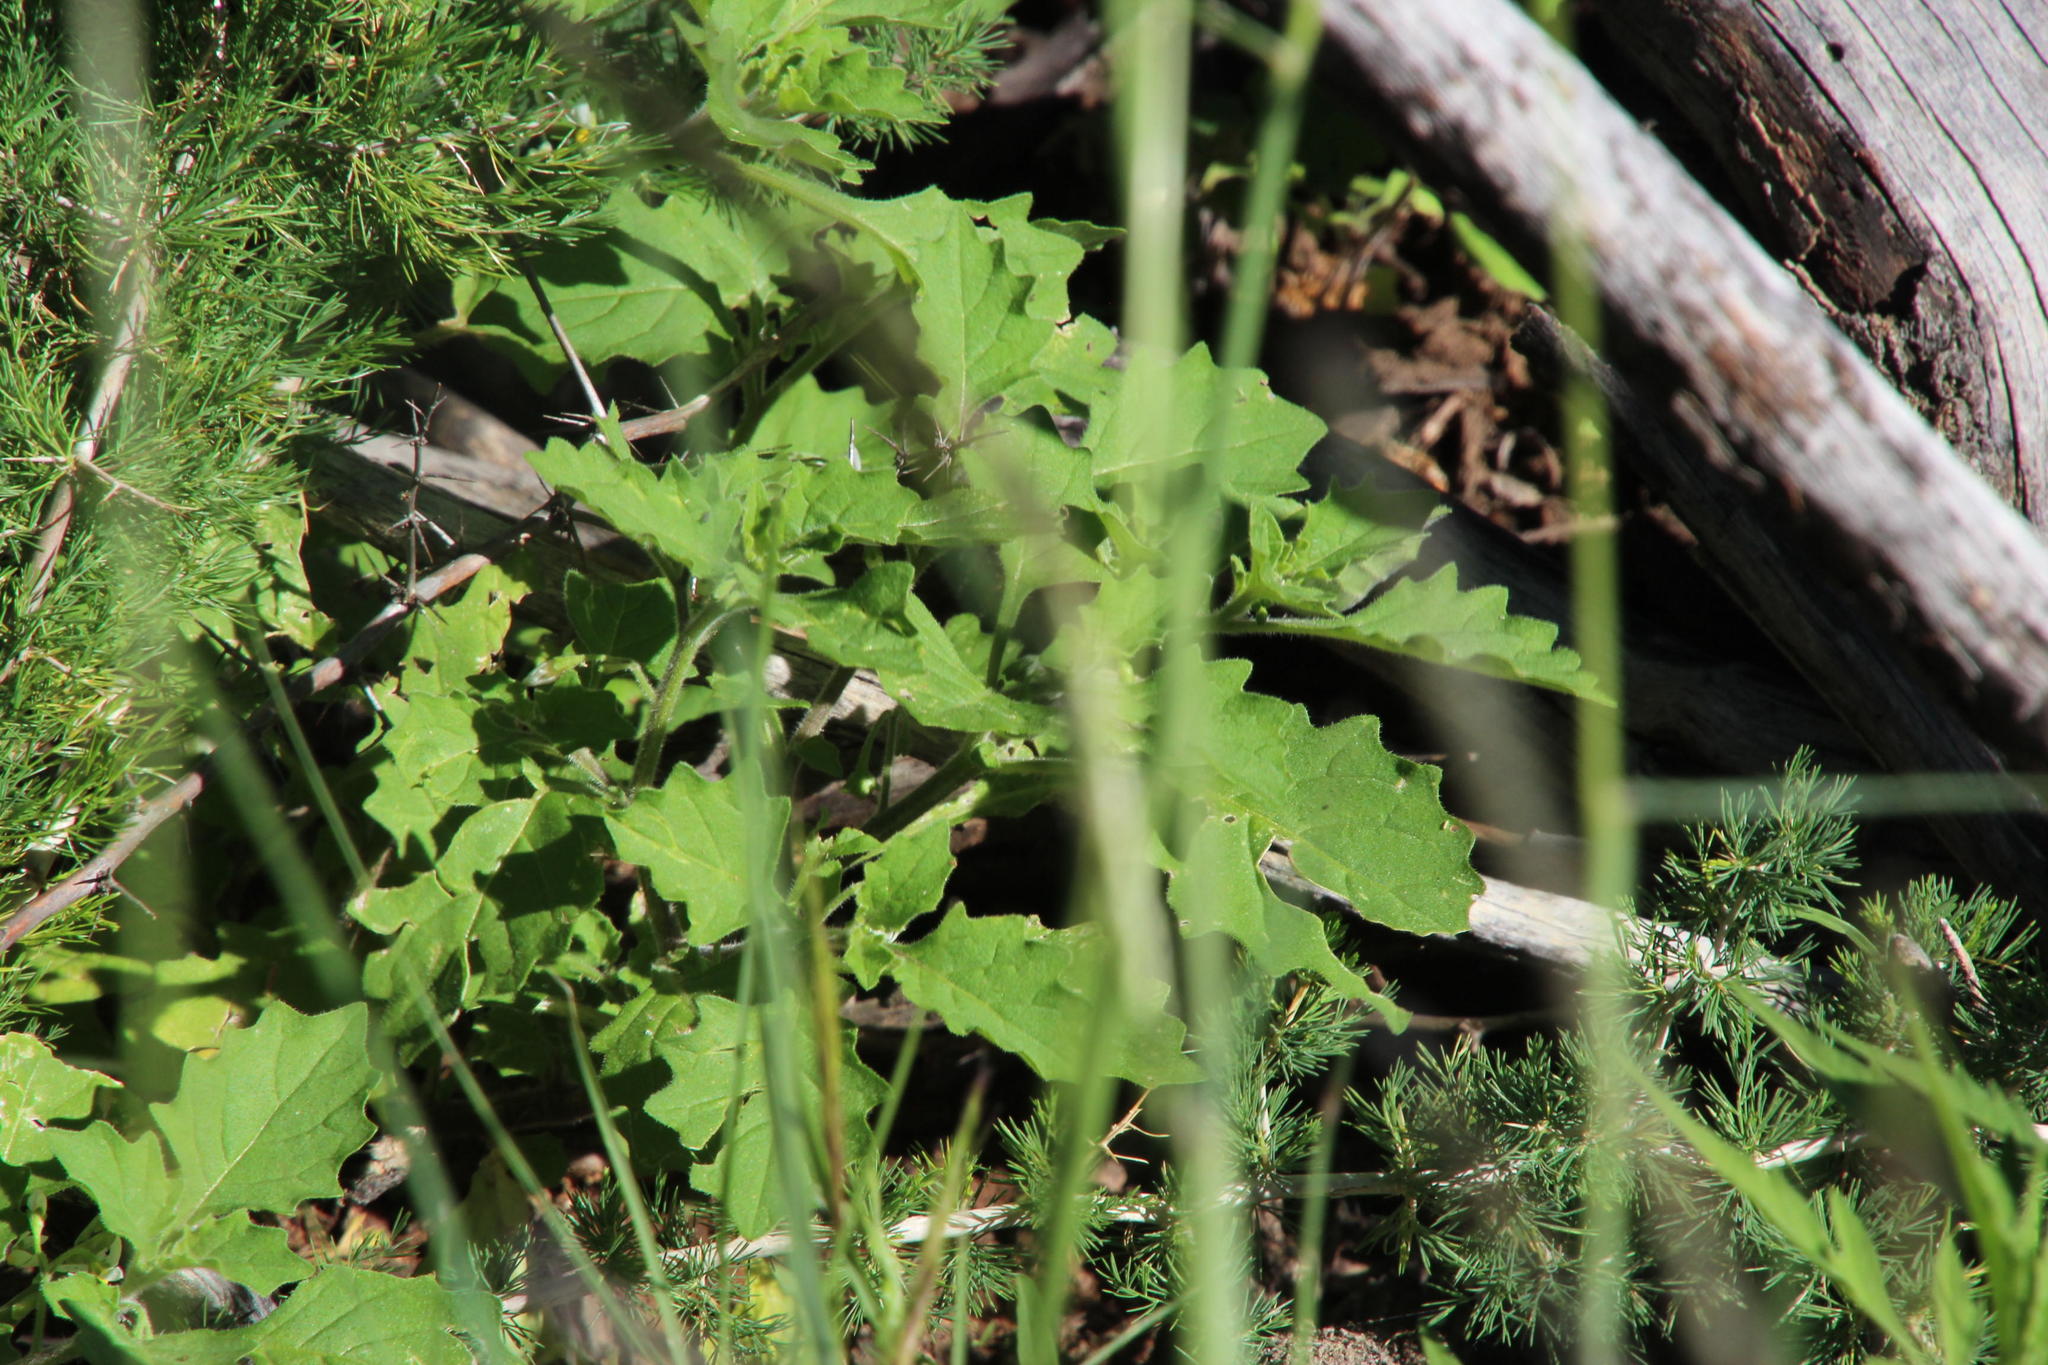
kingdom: Plantae
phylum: Tracheophyta
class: Magnoliopsida
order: Solanales
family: Solanaceae
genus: Solanum
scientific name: Solanum retroflexum
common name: Wonderberry
